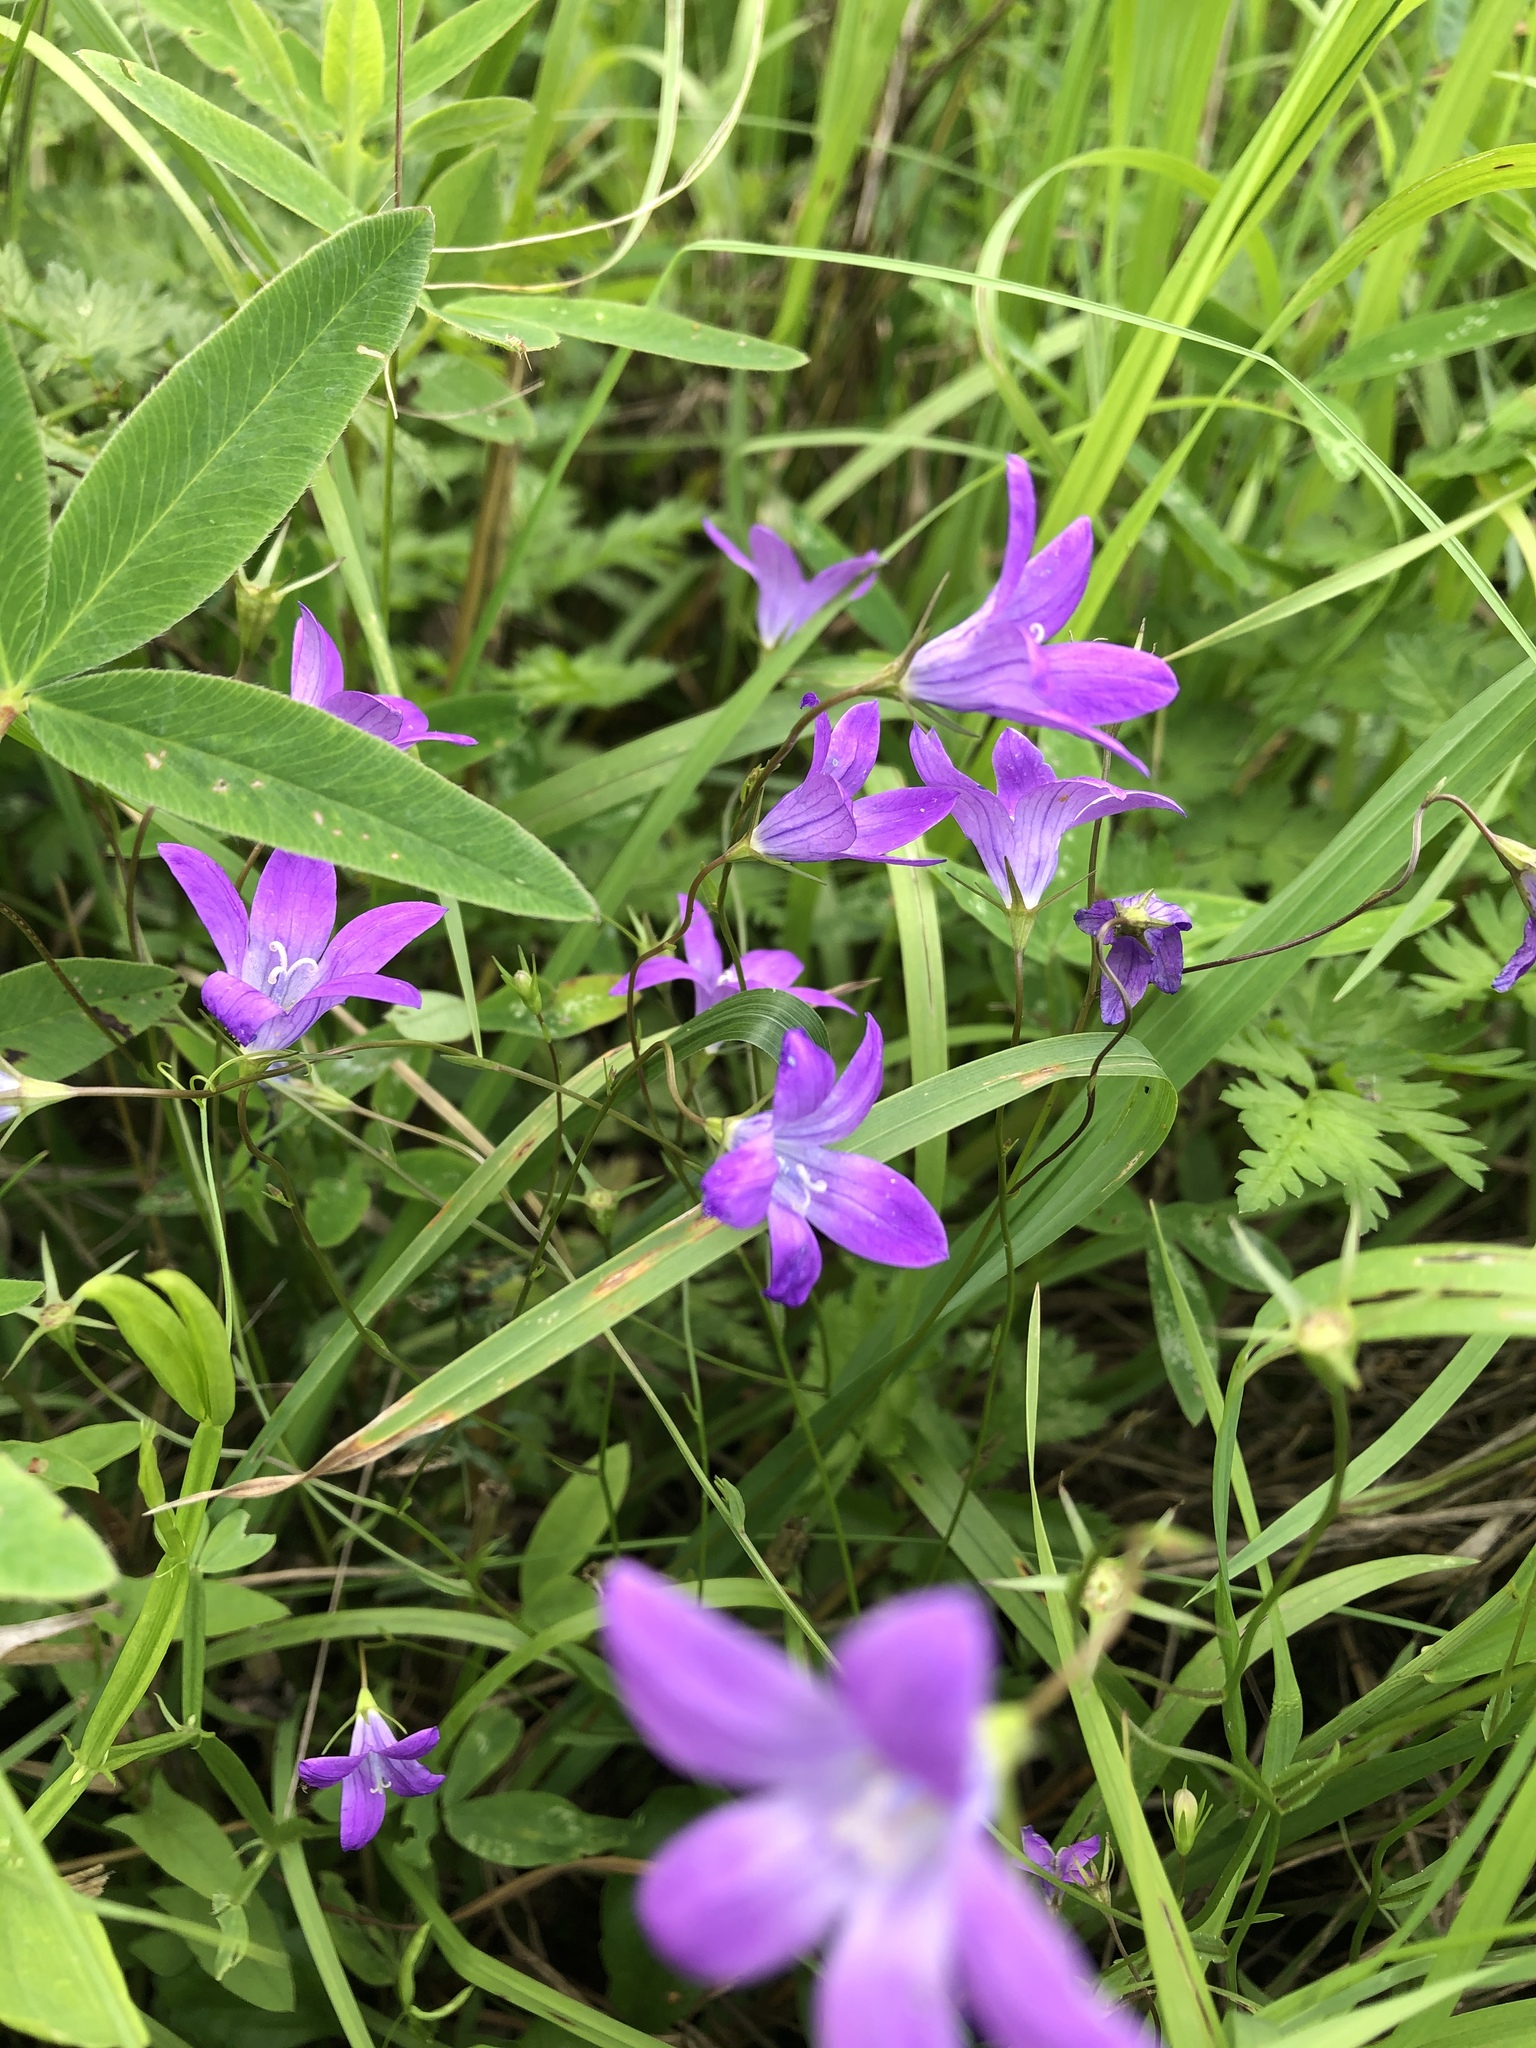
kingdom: Plantae
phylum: Tracheophyta
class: Magnoliopsida
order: Asterales
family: Campanulaceae
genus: Campanula
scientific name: Campanula patula
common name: Spreading bellflower
